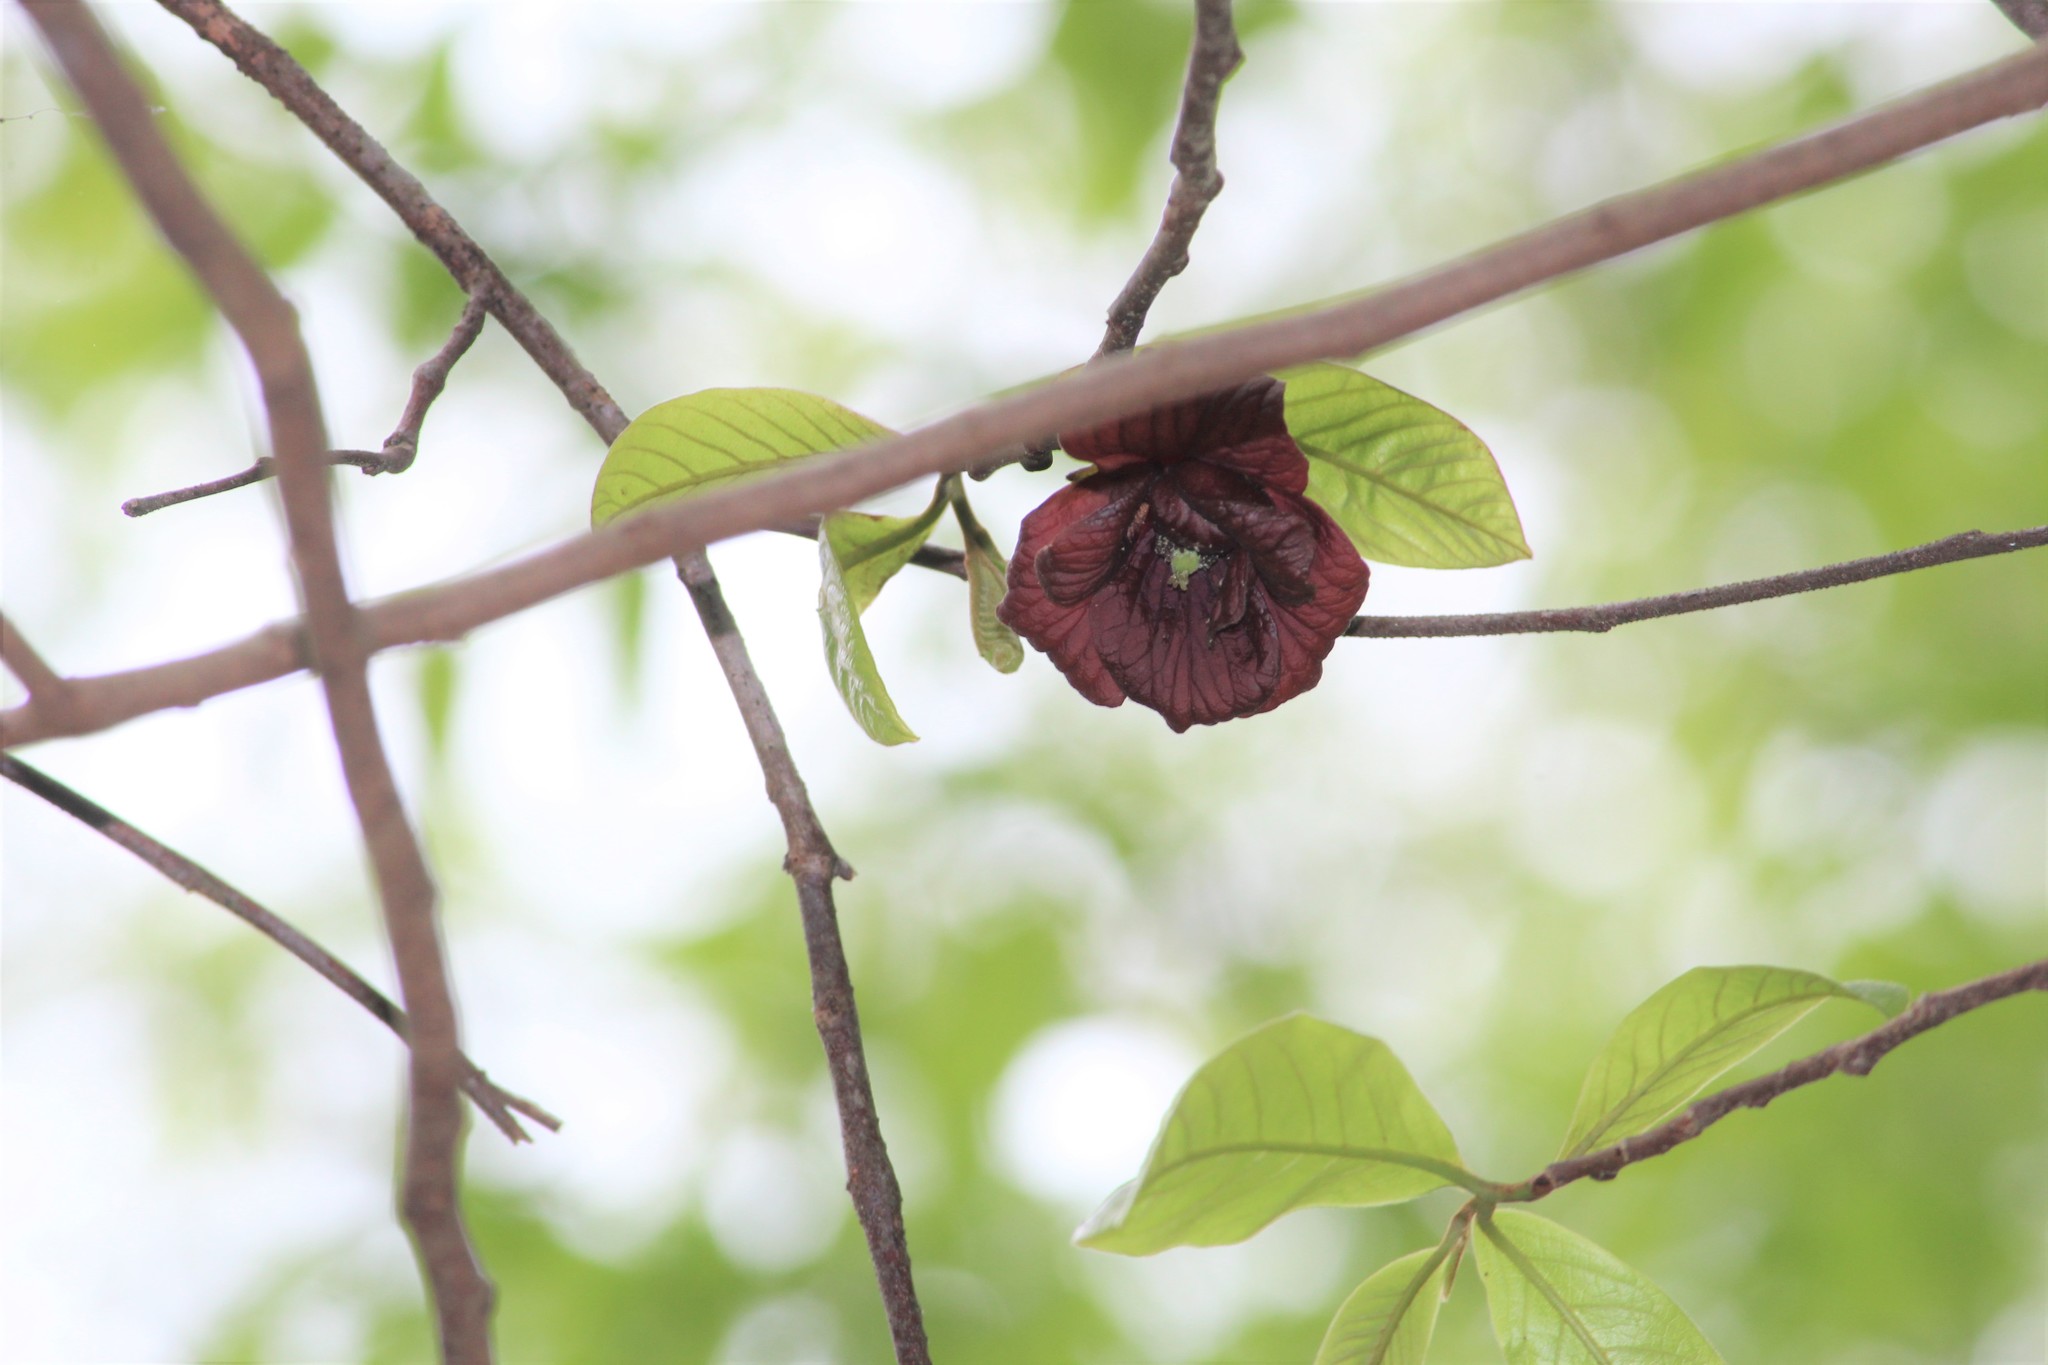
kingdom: Plantae
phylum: Tracheophyta
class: Magnoliopsida
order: Magnoliales
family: Annonaceae
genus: Asimina
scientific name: Asimina triloba
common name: Dog-banana
